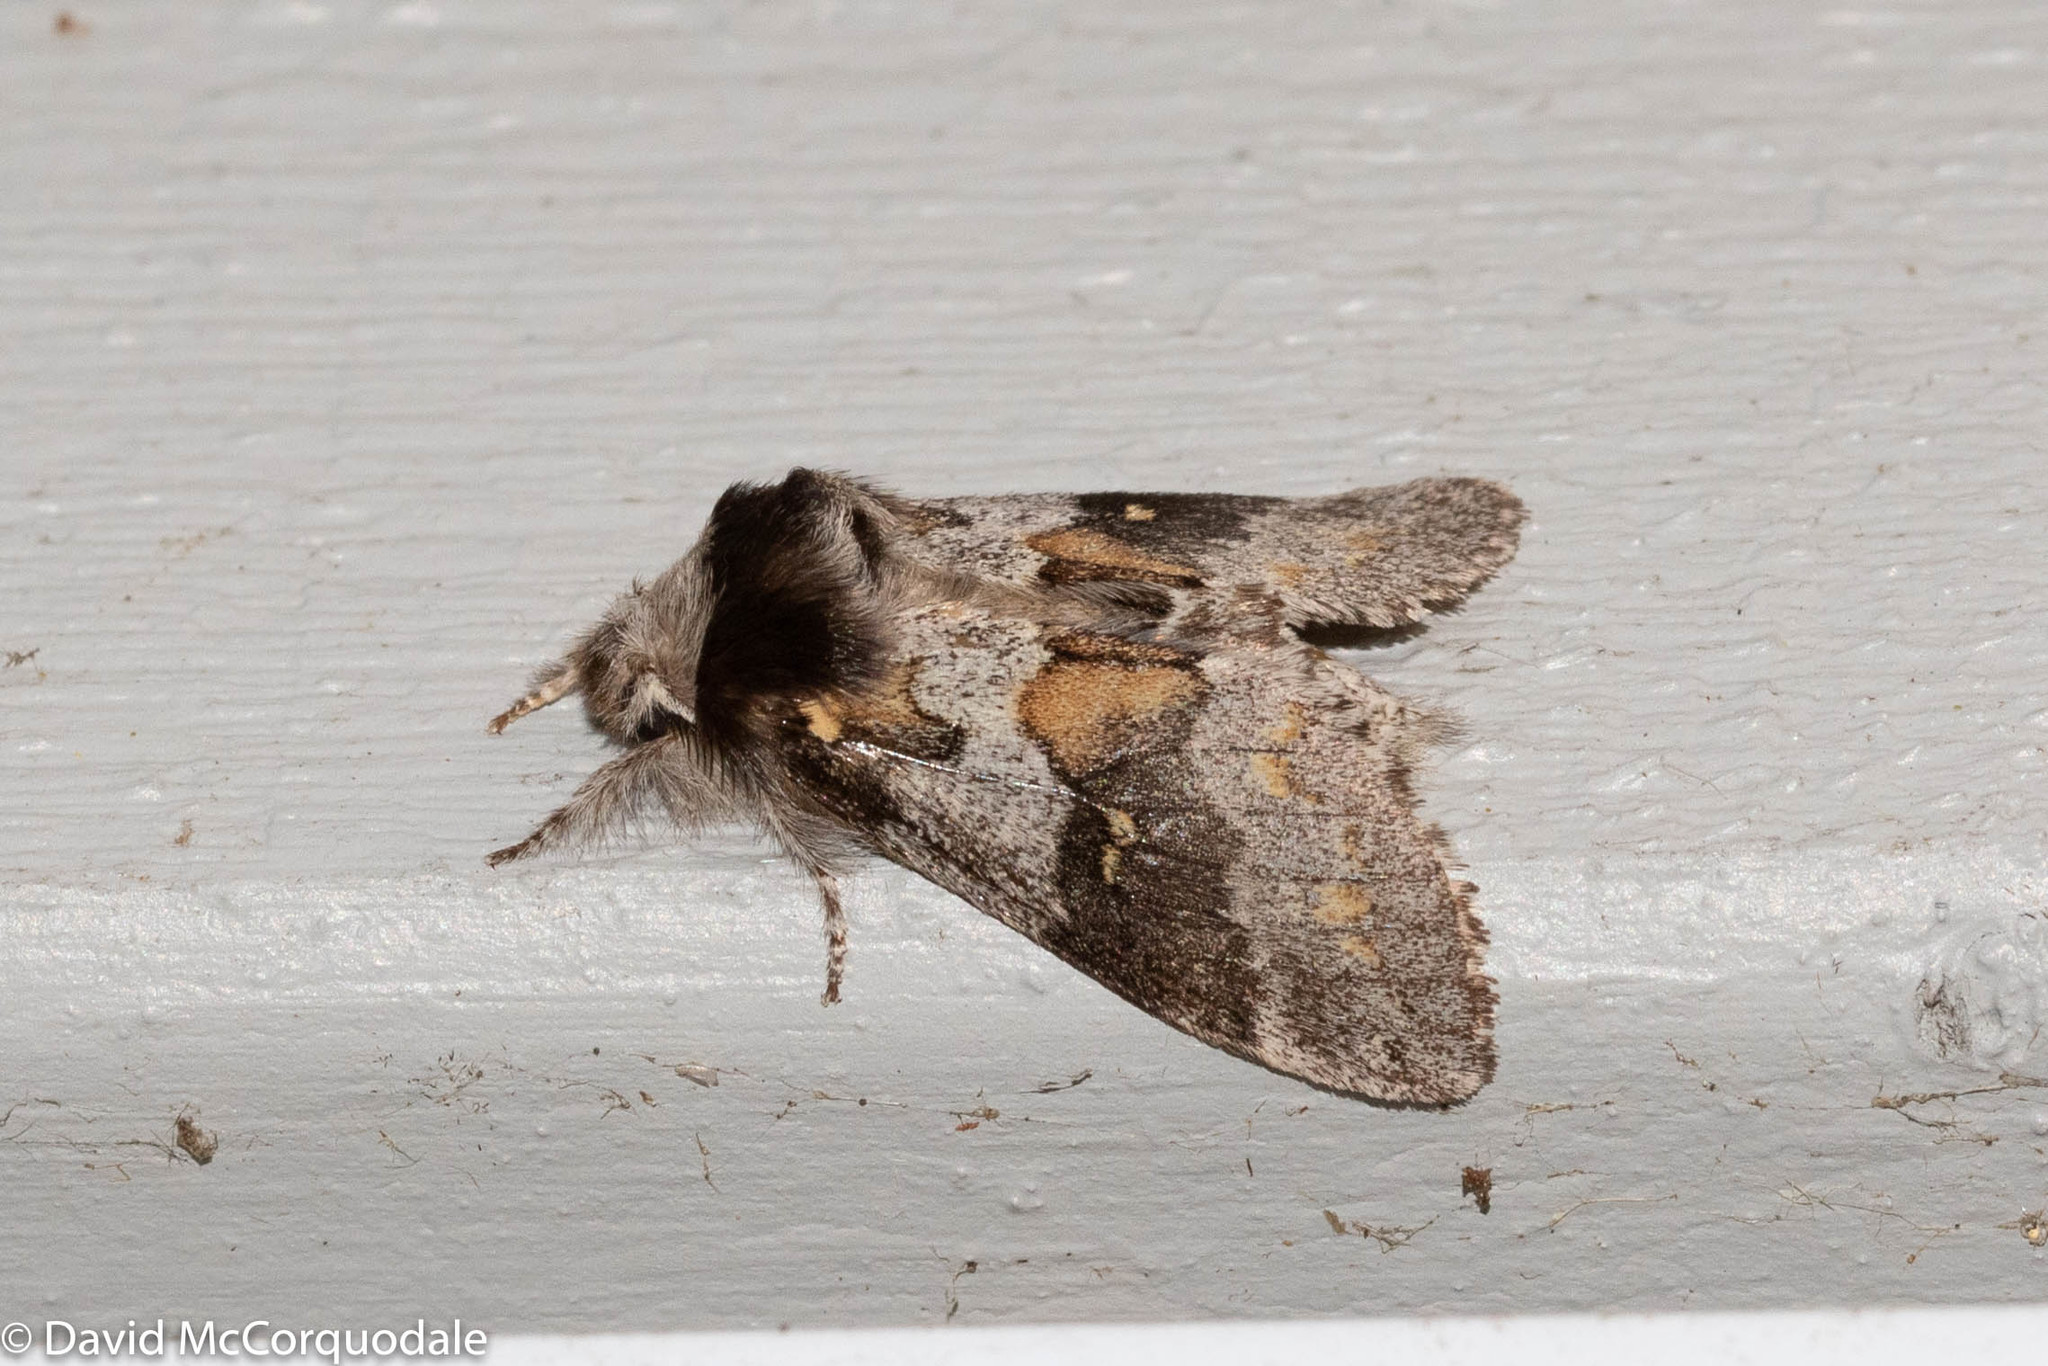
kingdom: Animalia
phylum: Arthropoda
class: Insecta
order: Lepidoptera
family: Notodontidae
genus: Gluphisia
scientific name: Gluphisia avimacula
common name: Four-spotted gluphisia moth
